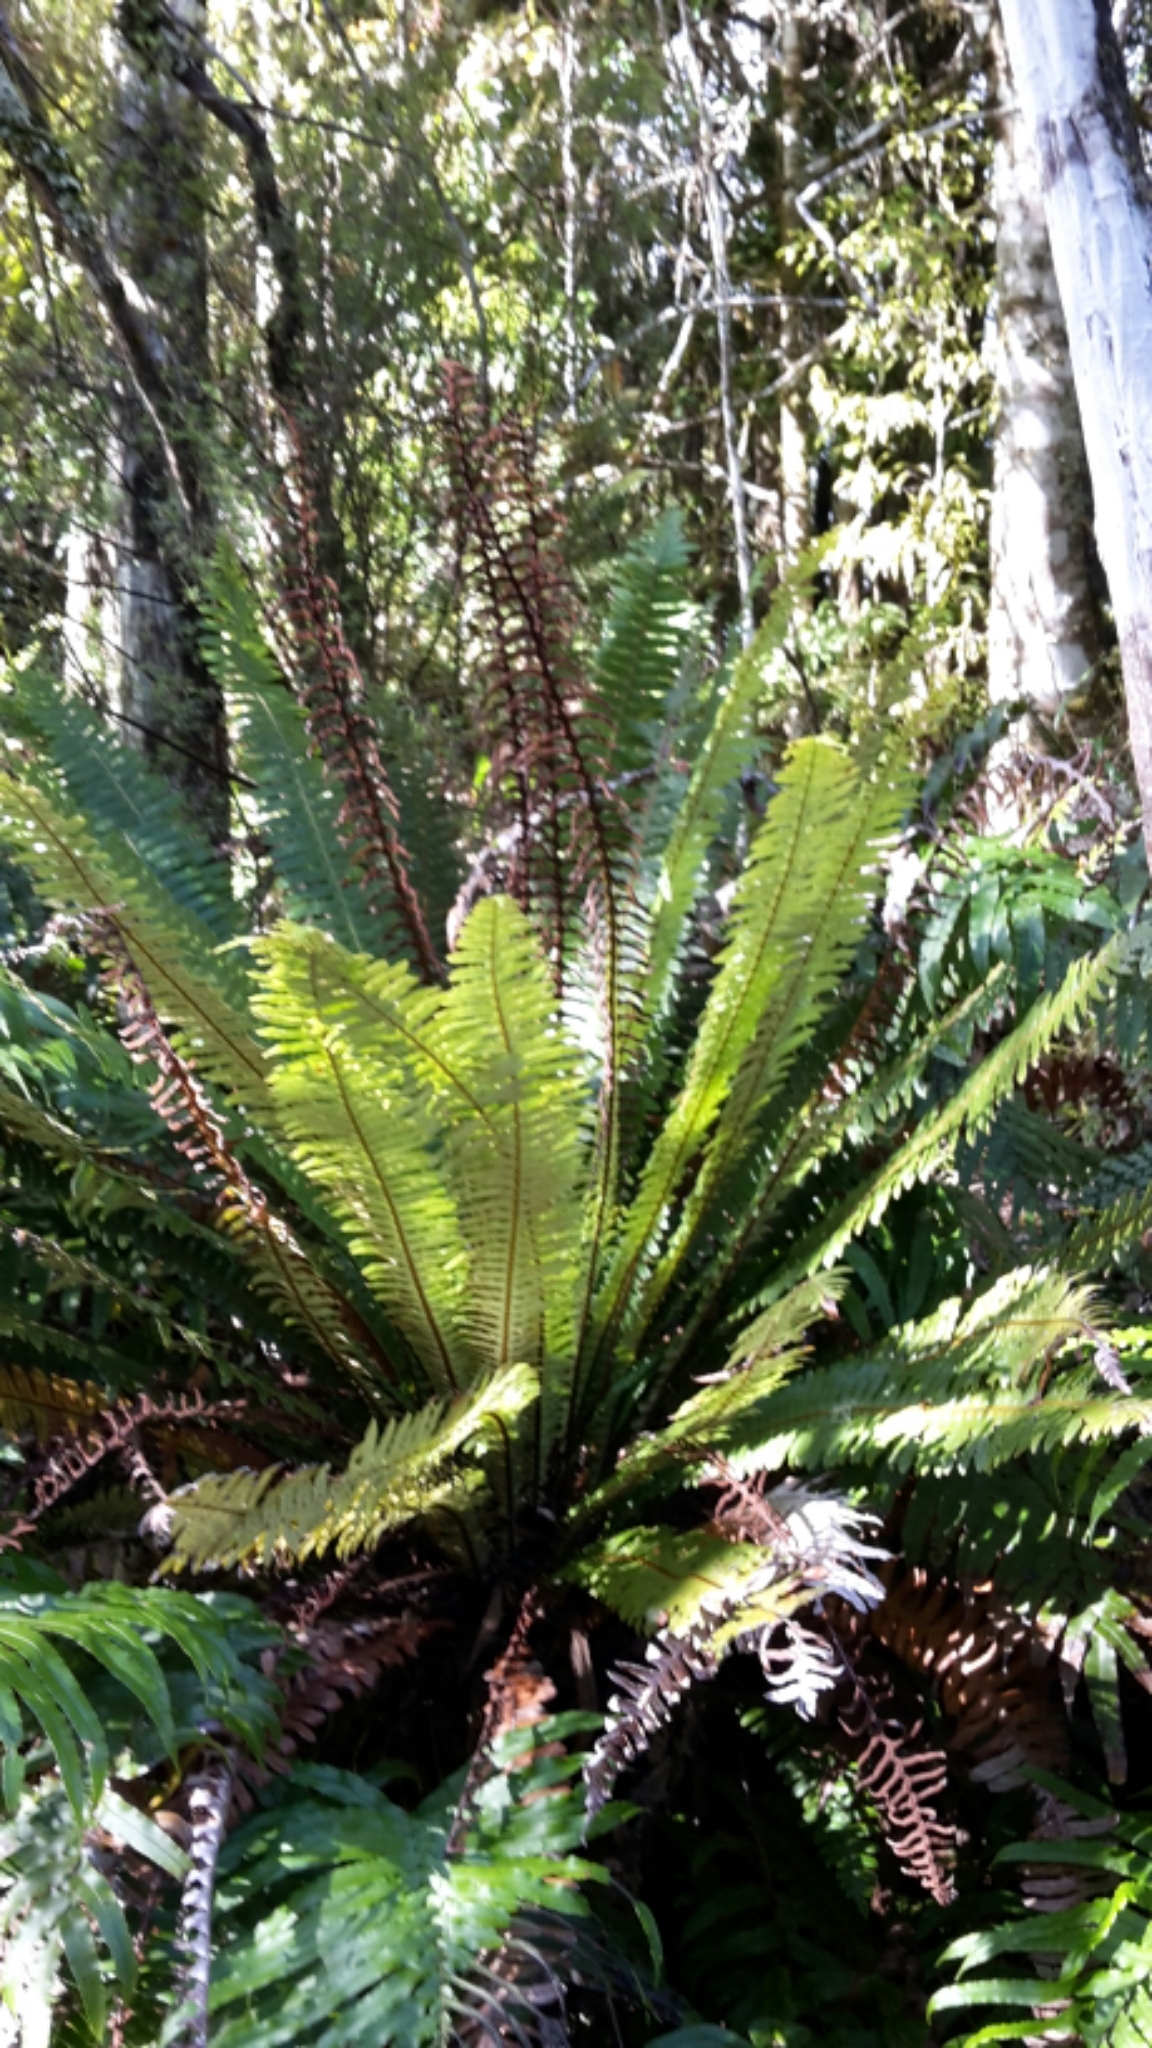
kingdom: Plantae
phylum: Tracheophyta
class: Polypodiopsida
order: Polypodiales
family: Blechnaceae
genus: Lomaria
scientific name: Lomaria discolor
